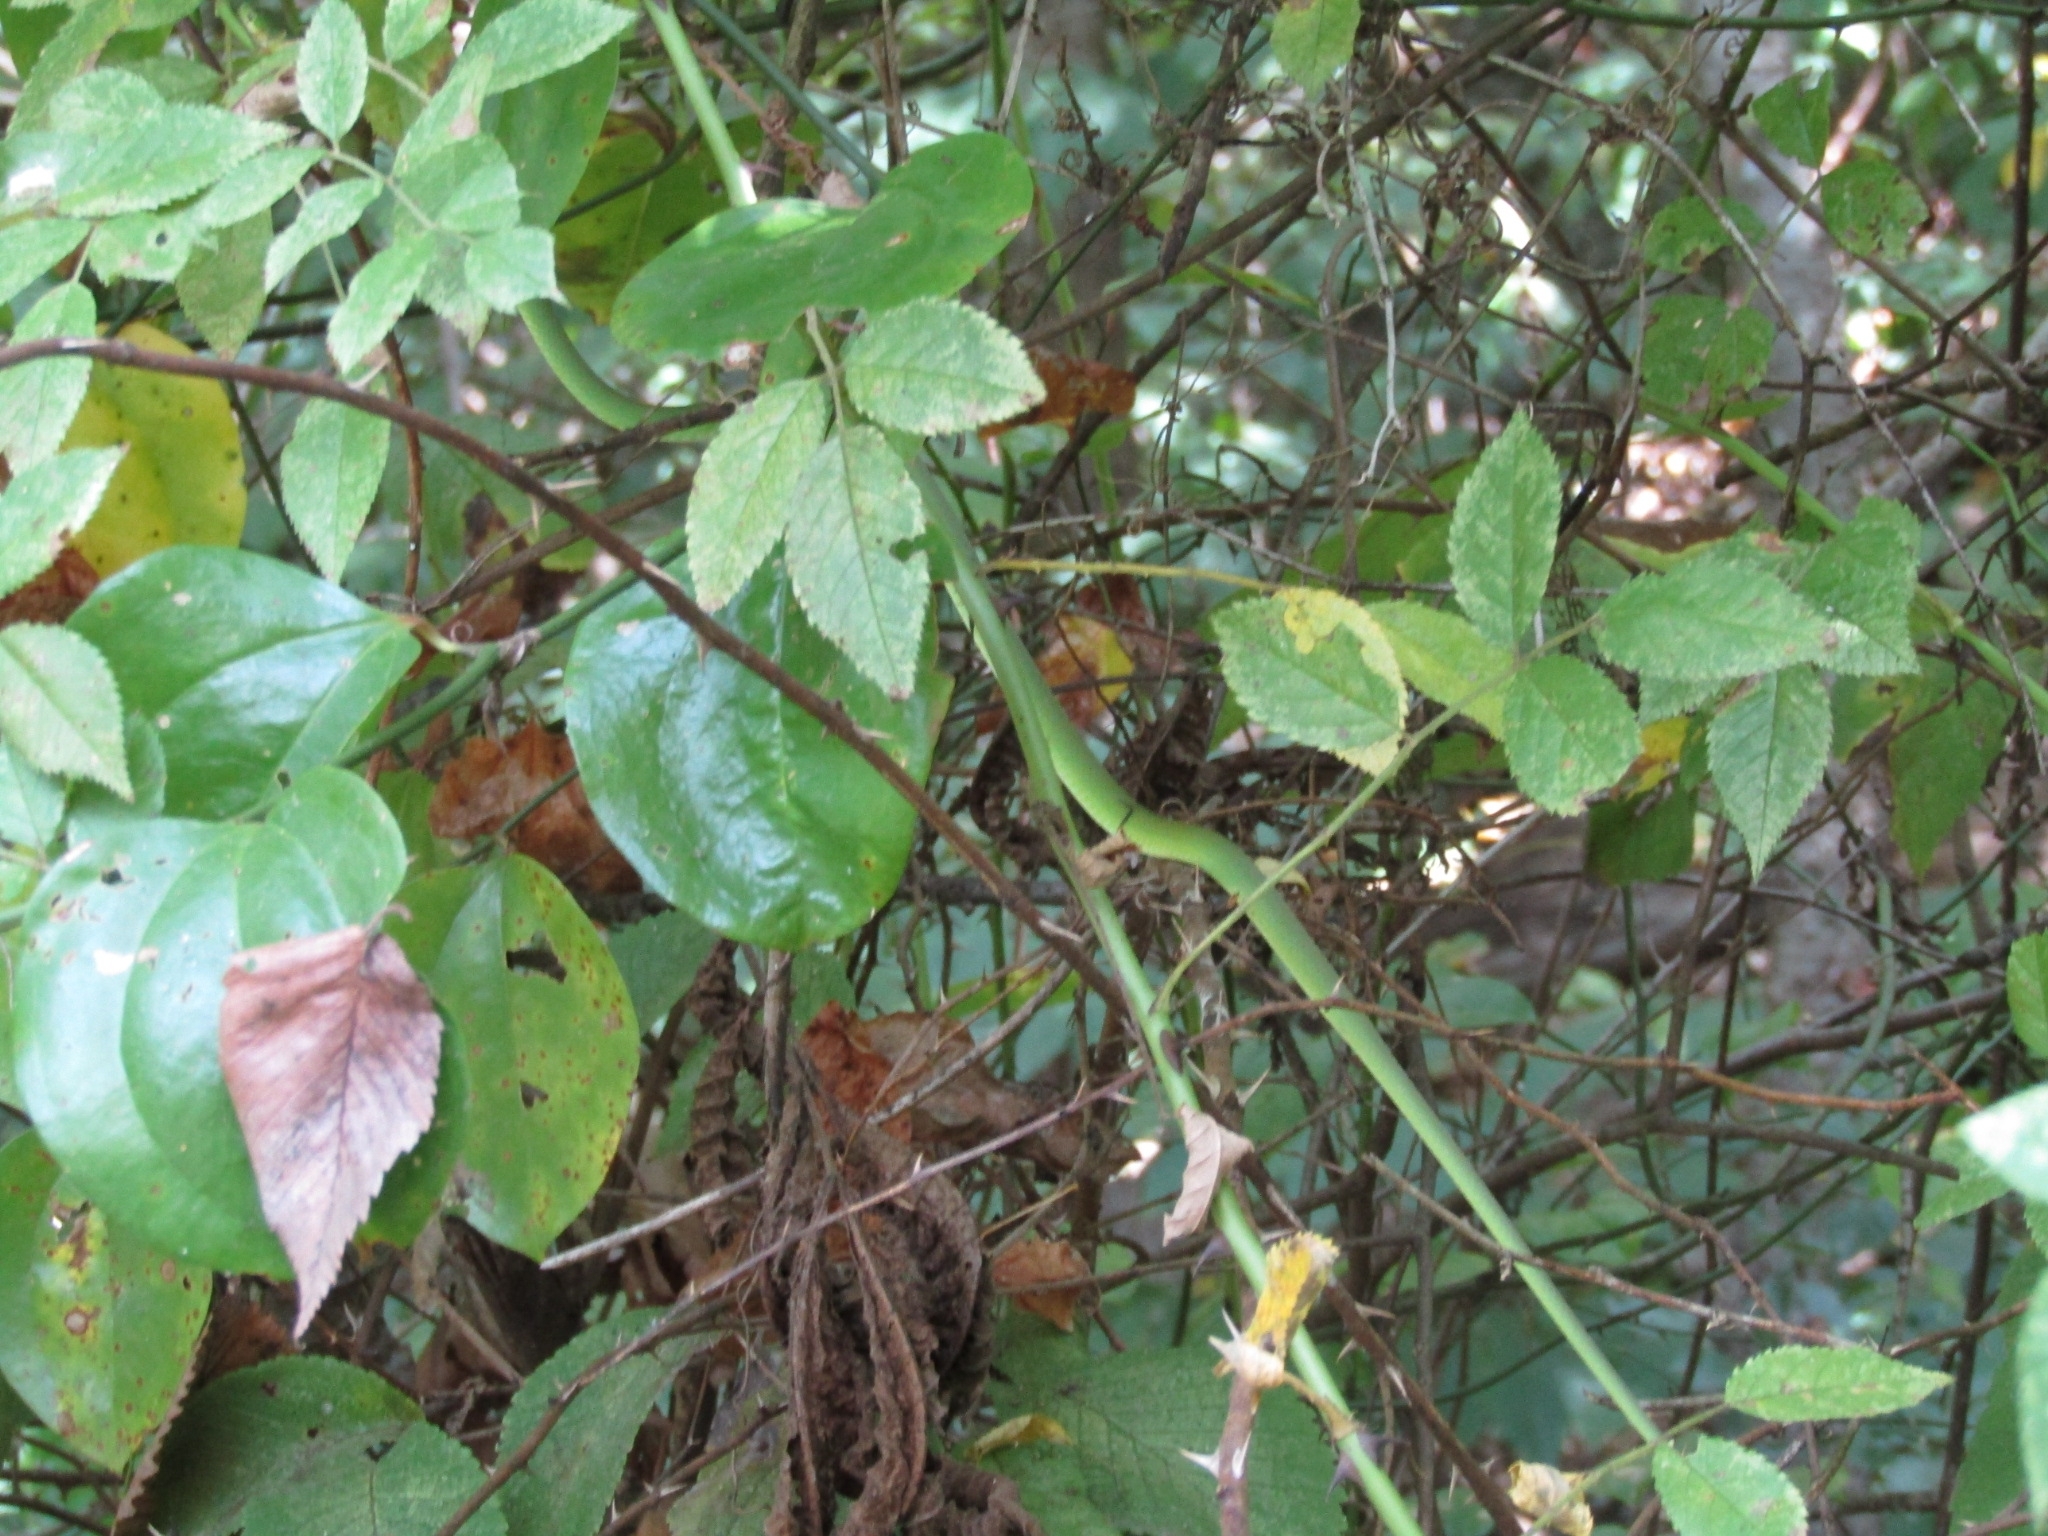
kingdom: Animalia
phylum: Chordata
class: Squamata
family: Colubridae
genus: Opheodrys
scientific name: Opheodrys aestivus
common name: Rough greensnake
